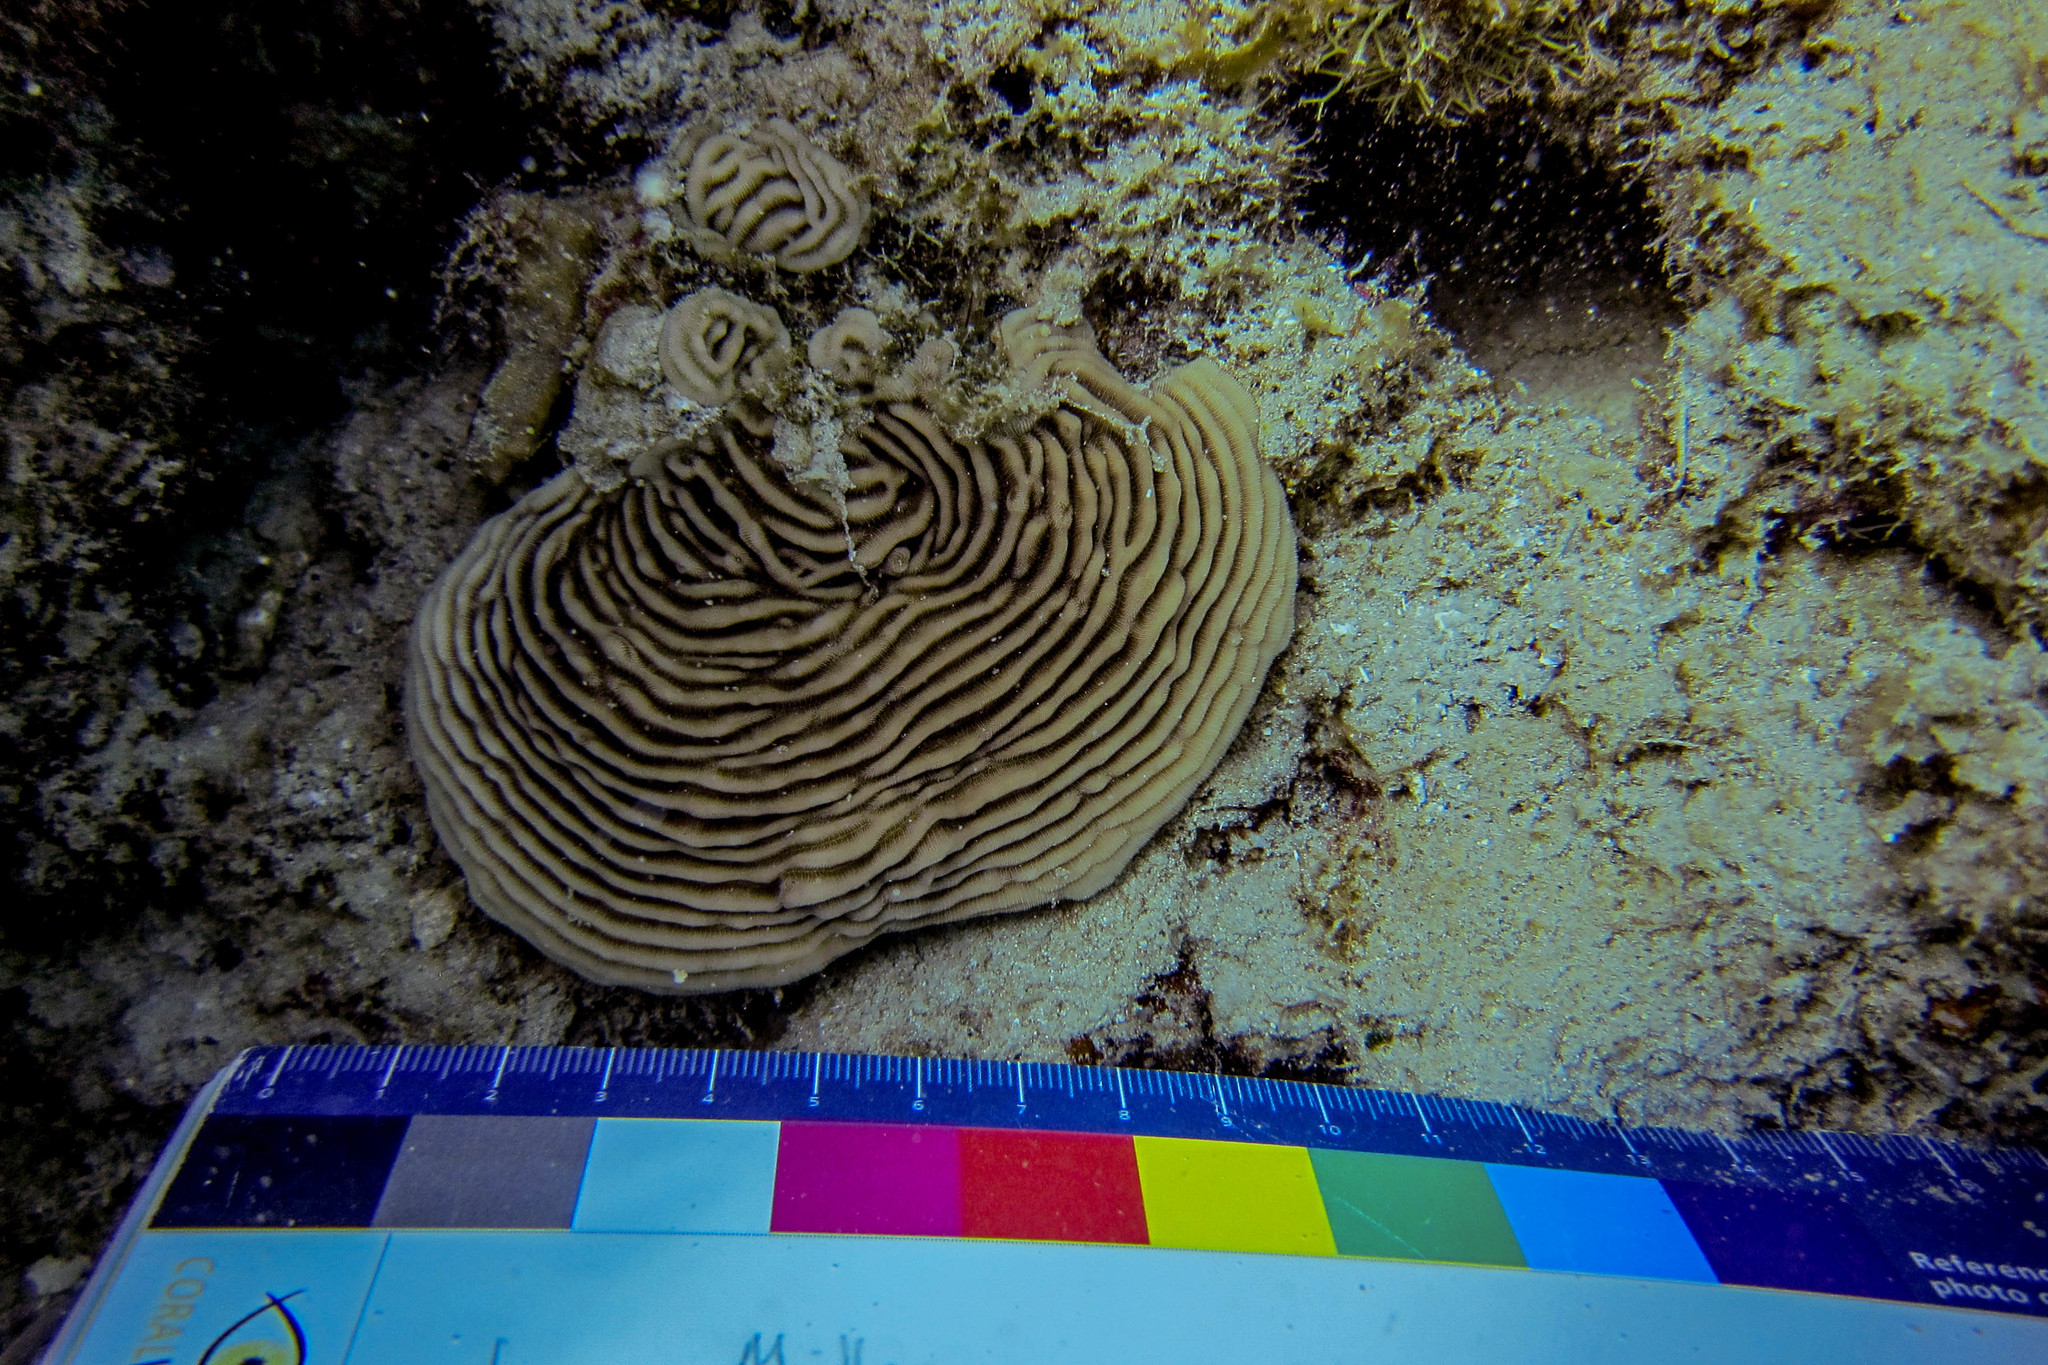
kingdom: Animalia
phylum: Cnidaria
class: Anthozoa
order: Scleractinia
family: Pachyseridae
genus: Pachyseris
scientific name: Pachyseris speciosa
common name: Serpent coral
